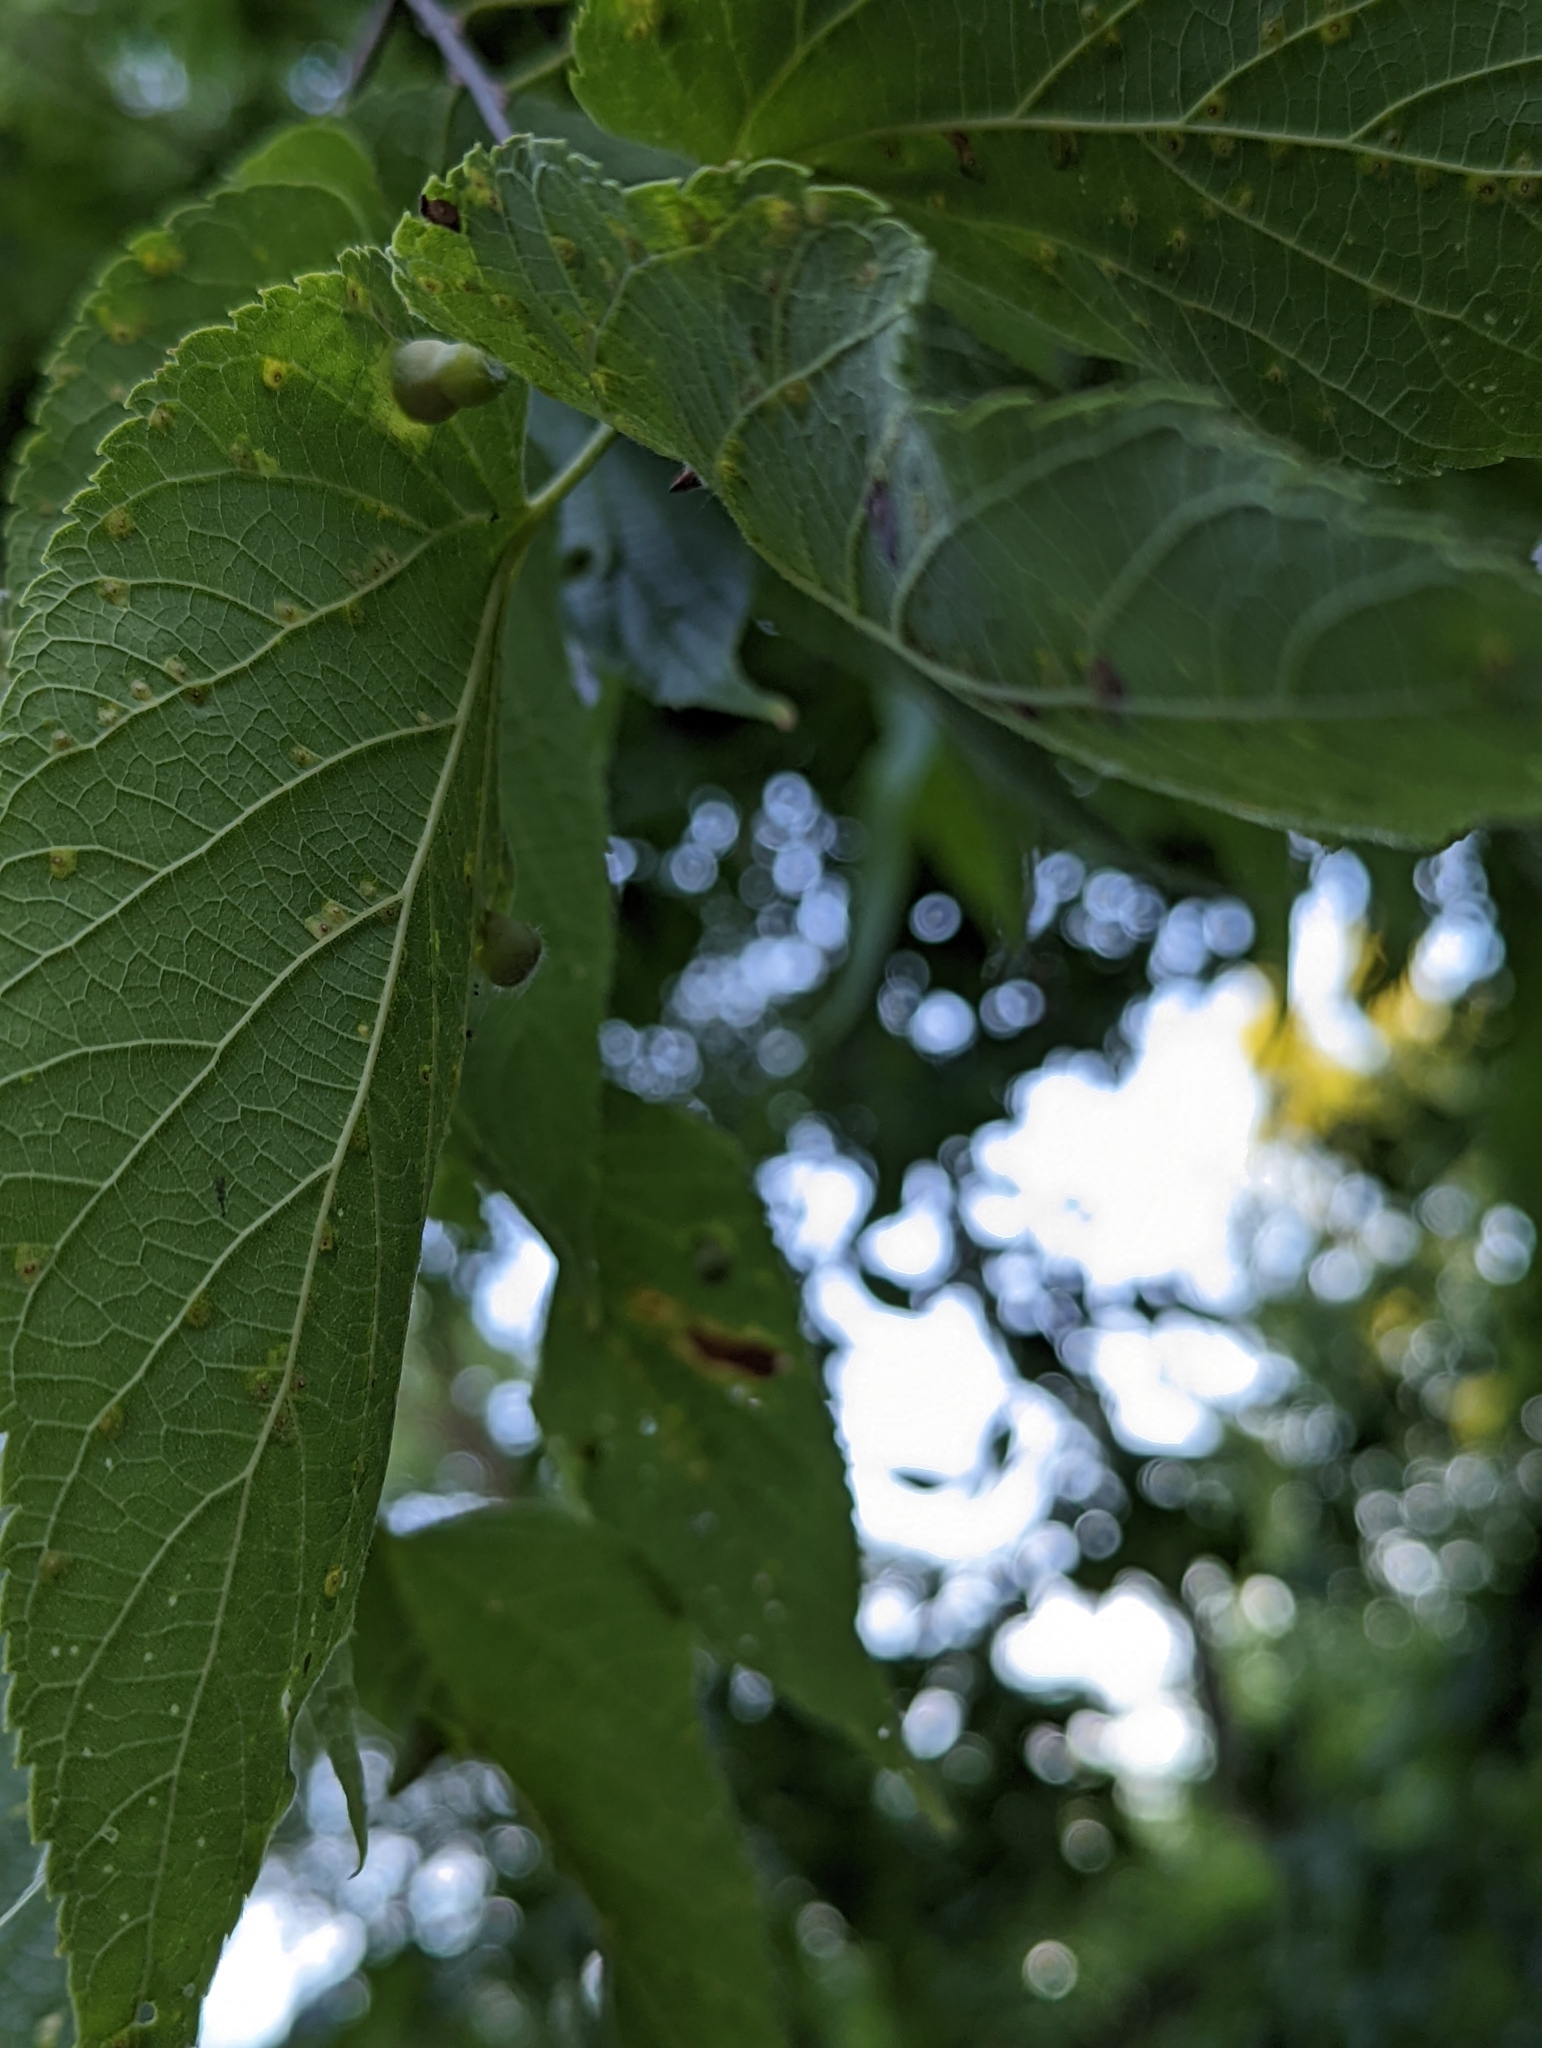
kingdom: Animalia
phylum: Arthropoda
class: Insecta
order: Hemiptera
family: Aphalaridae
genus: Pachypsylla
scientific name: Pachypsylla celtidismamma
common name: Hackberry nipplegall psyllid
